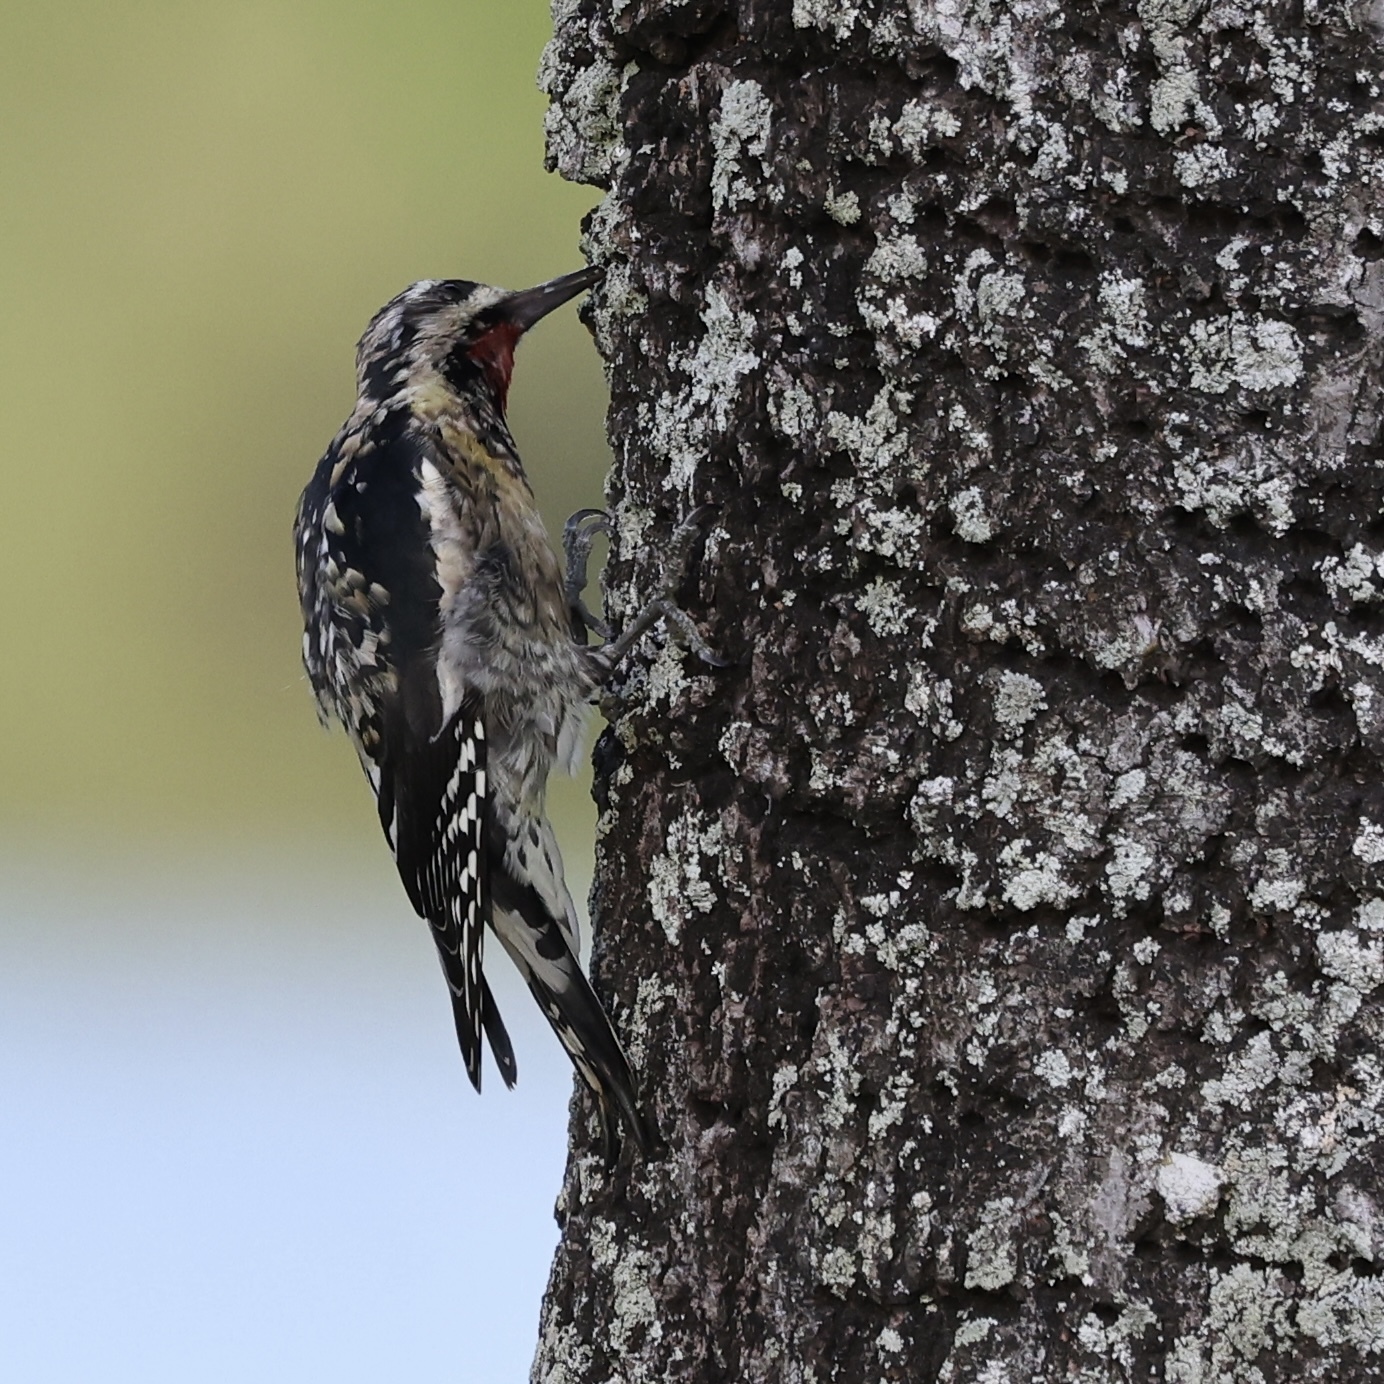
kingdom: Animalia
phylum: Chordata
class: Aves
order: Piciformes
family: Picidae
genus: Sphyrapicus
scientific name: Sphyrapicus varius
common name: Yellow-bellied sapsucker
